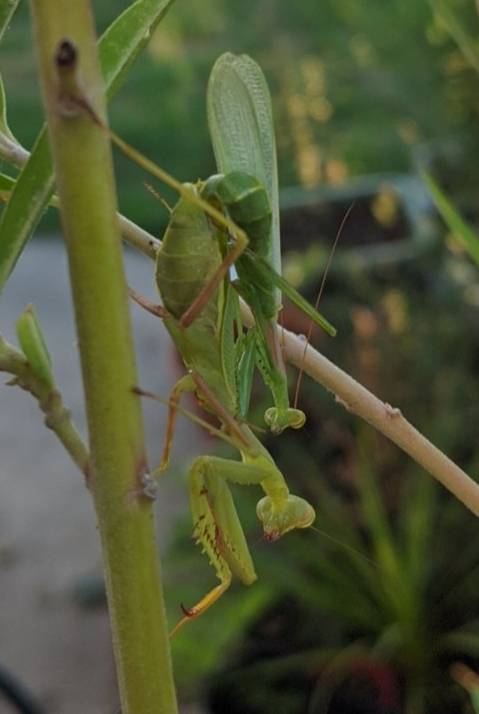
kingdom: Animalia
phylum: Arthropoda
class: Insecta
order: Mantodea
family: Miomantidae
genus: Miomantis
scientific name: Miomantis caffra
